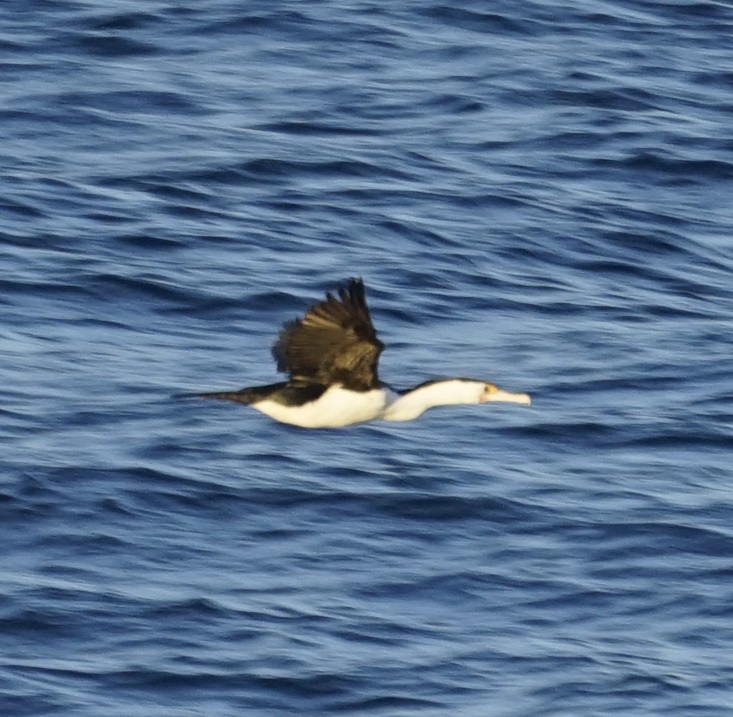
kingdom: Animalia
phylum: Chordata
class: Aves
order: Suliformes
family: Phalacrocoracidae
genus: Phalacrocorax
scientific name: Phalacrocorax varius
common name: Pied cormorant
